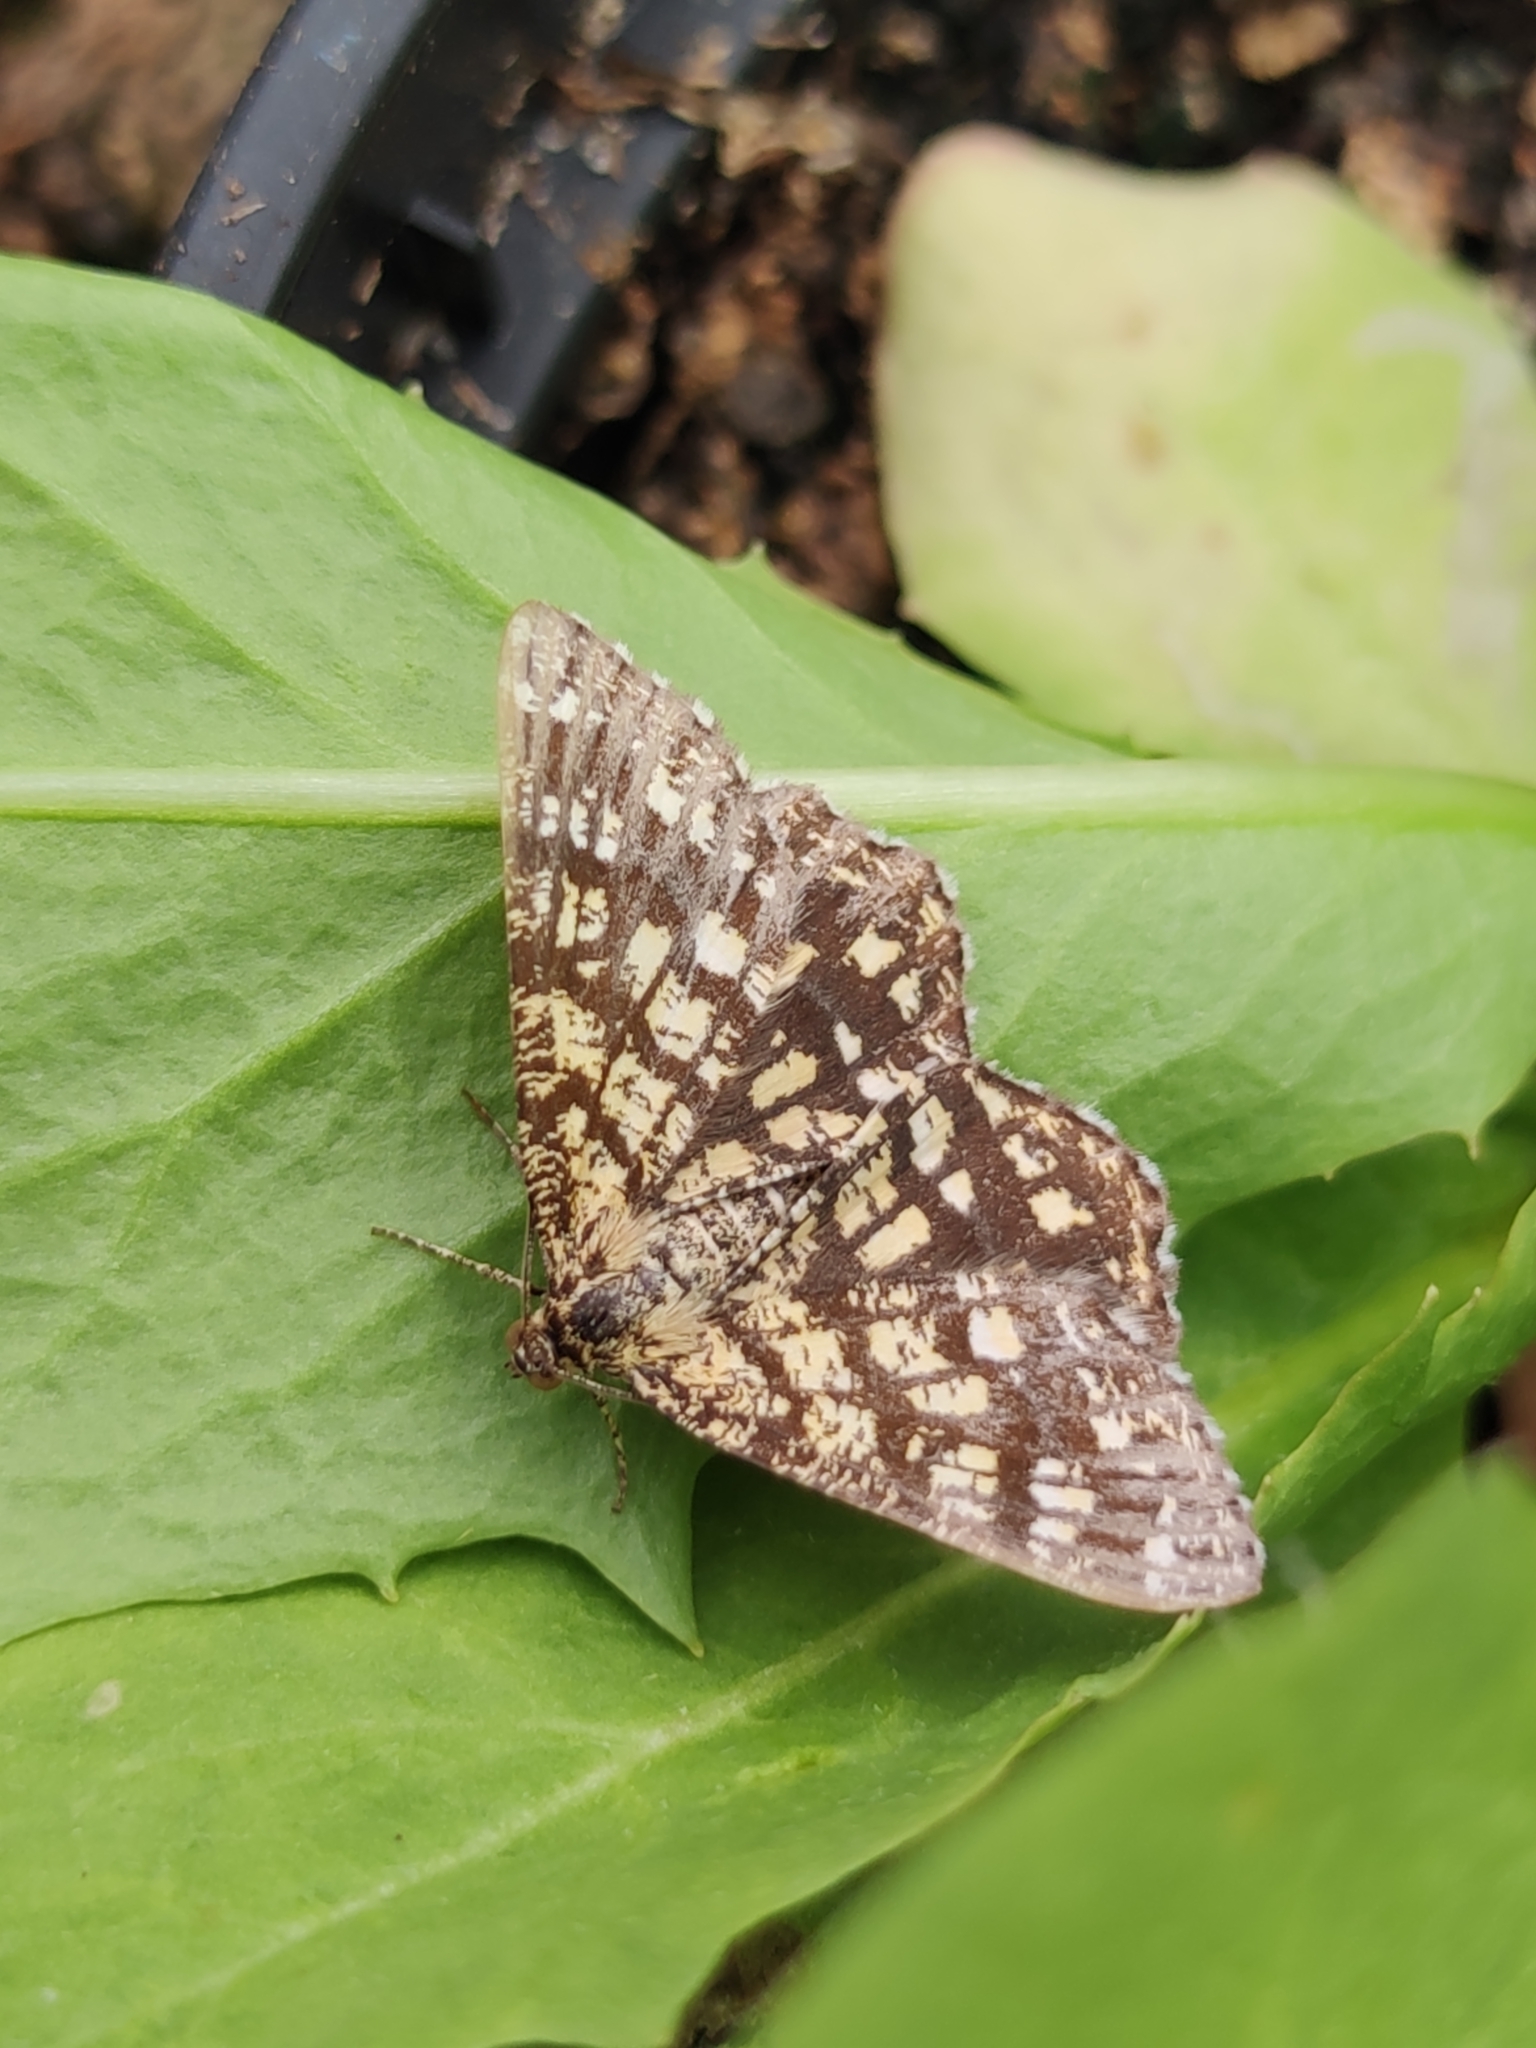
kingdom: Animalia
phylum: Arthropoda
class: Insecta
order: Lepidoptera
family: Geometridae
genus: Chiasmia
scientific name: Chiasmia clathrata
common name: Latticed heath
